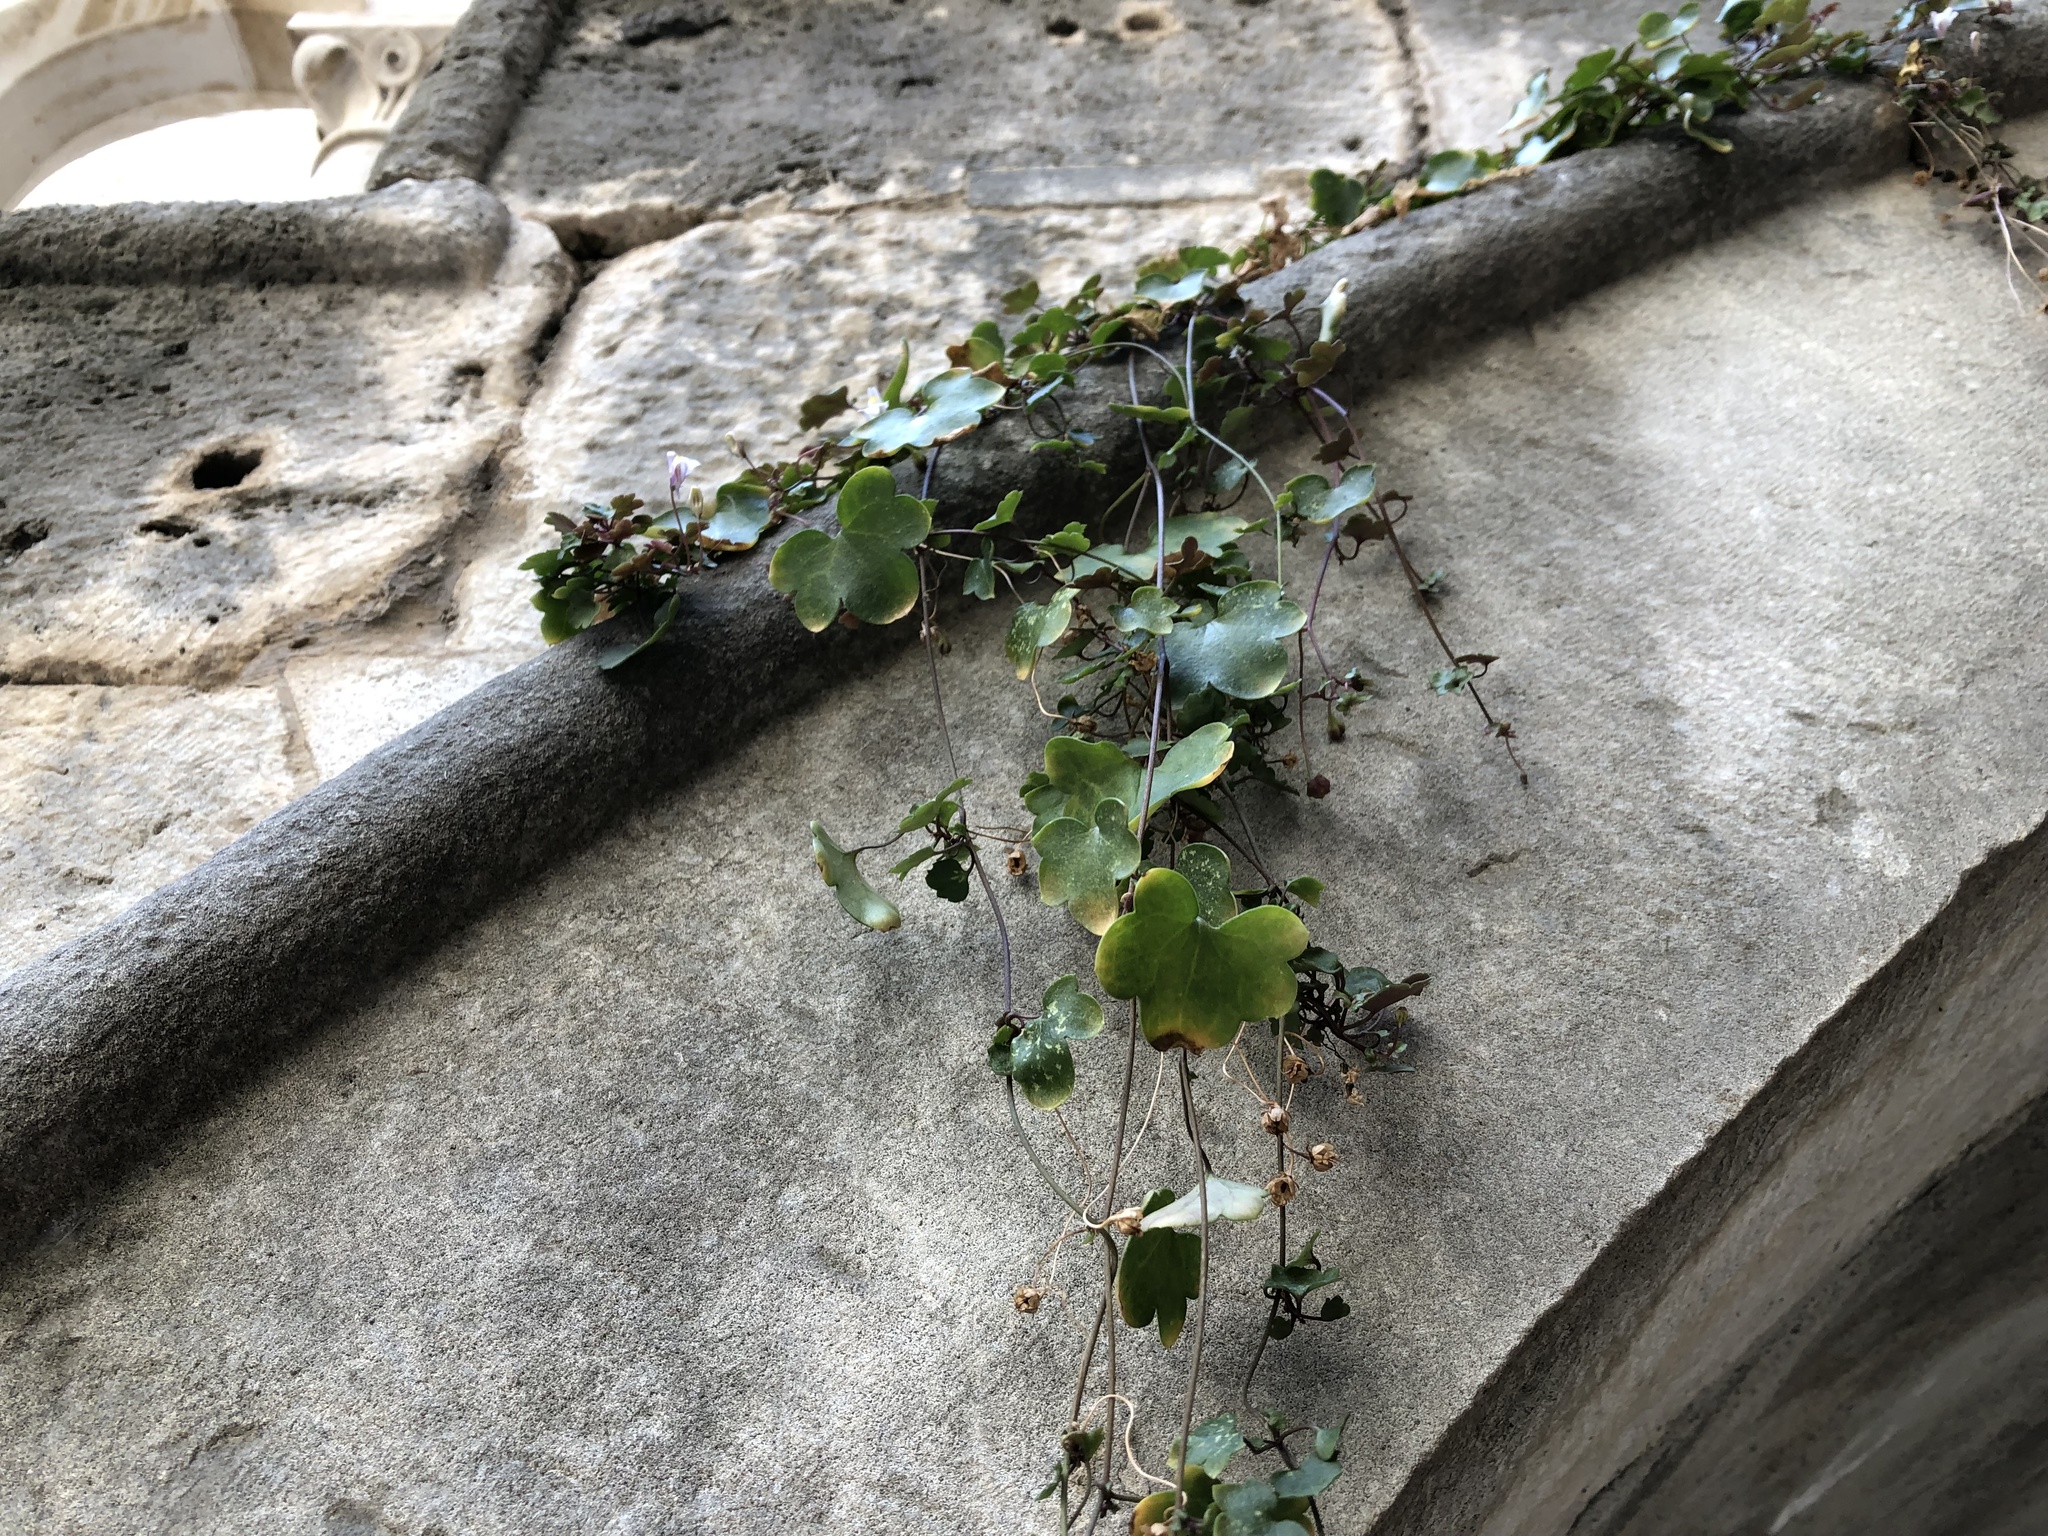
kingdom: Plantae
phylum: Tracheophyta
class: Magnoliopsida
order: Lamiales
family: Plantaginaceae
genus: Cymbalaria
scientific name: Cymbalaria muralis
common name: Ivy-leaved toadflax
